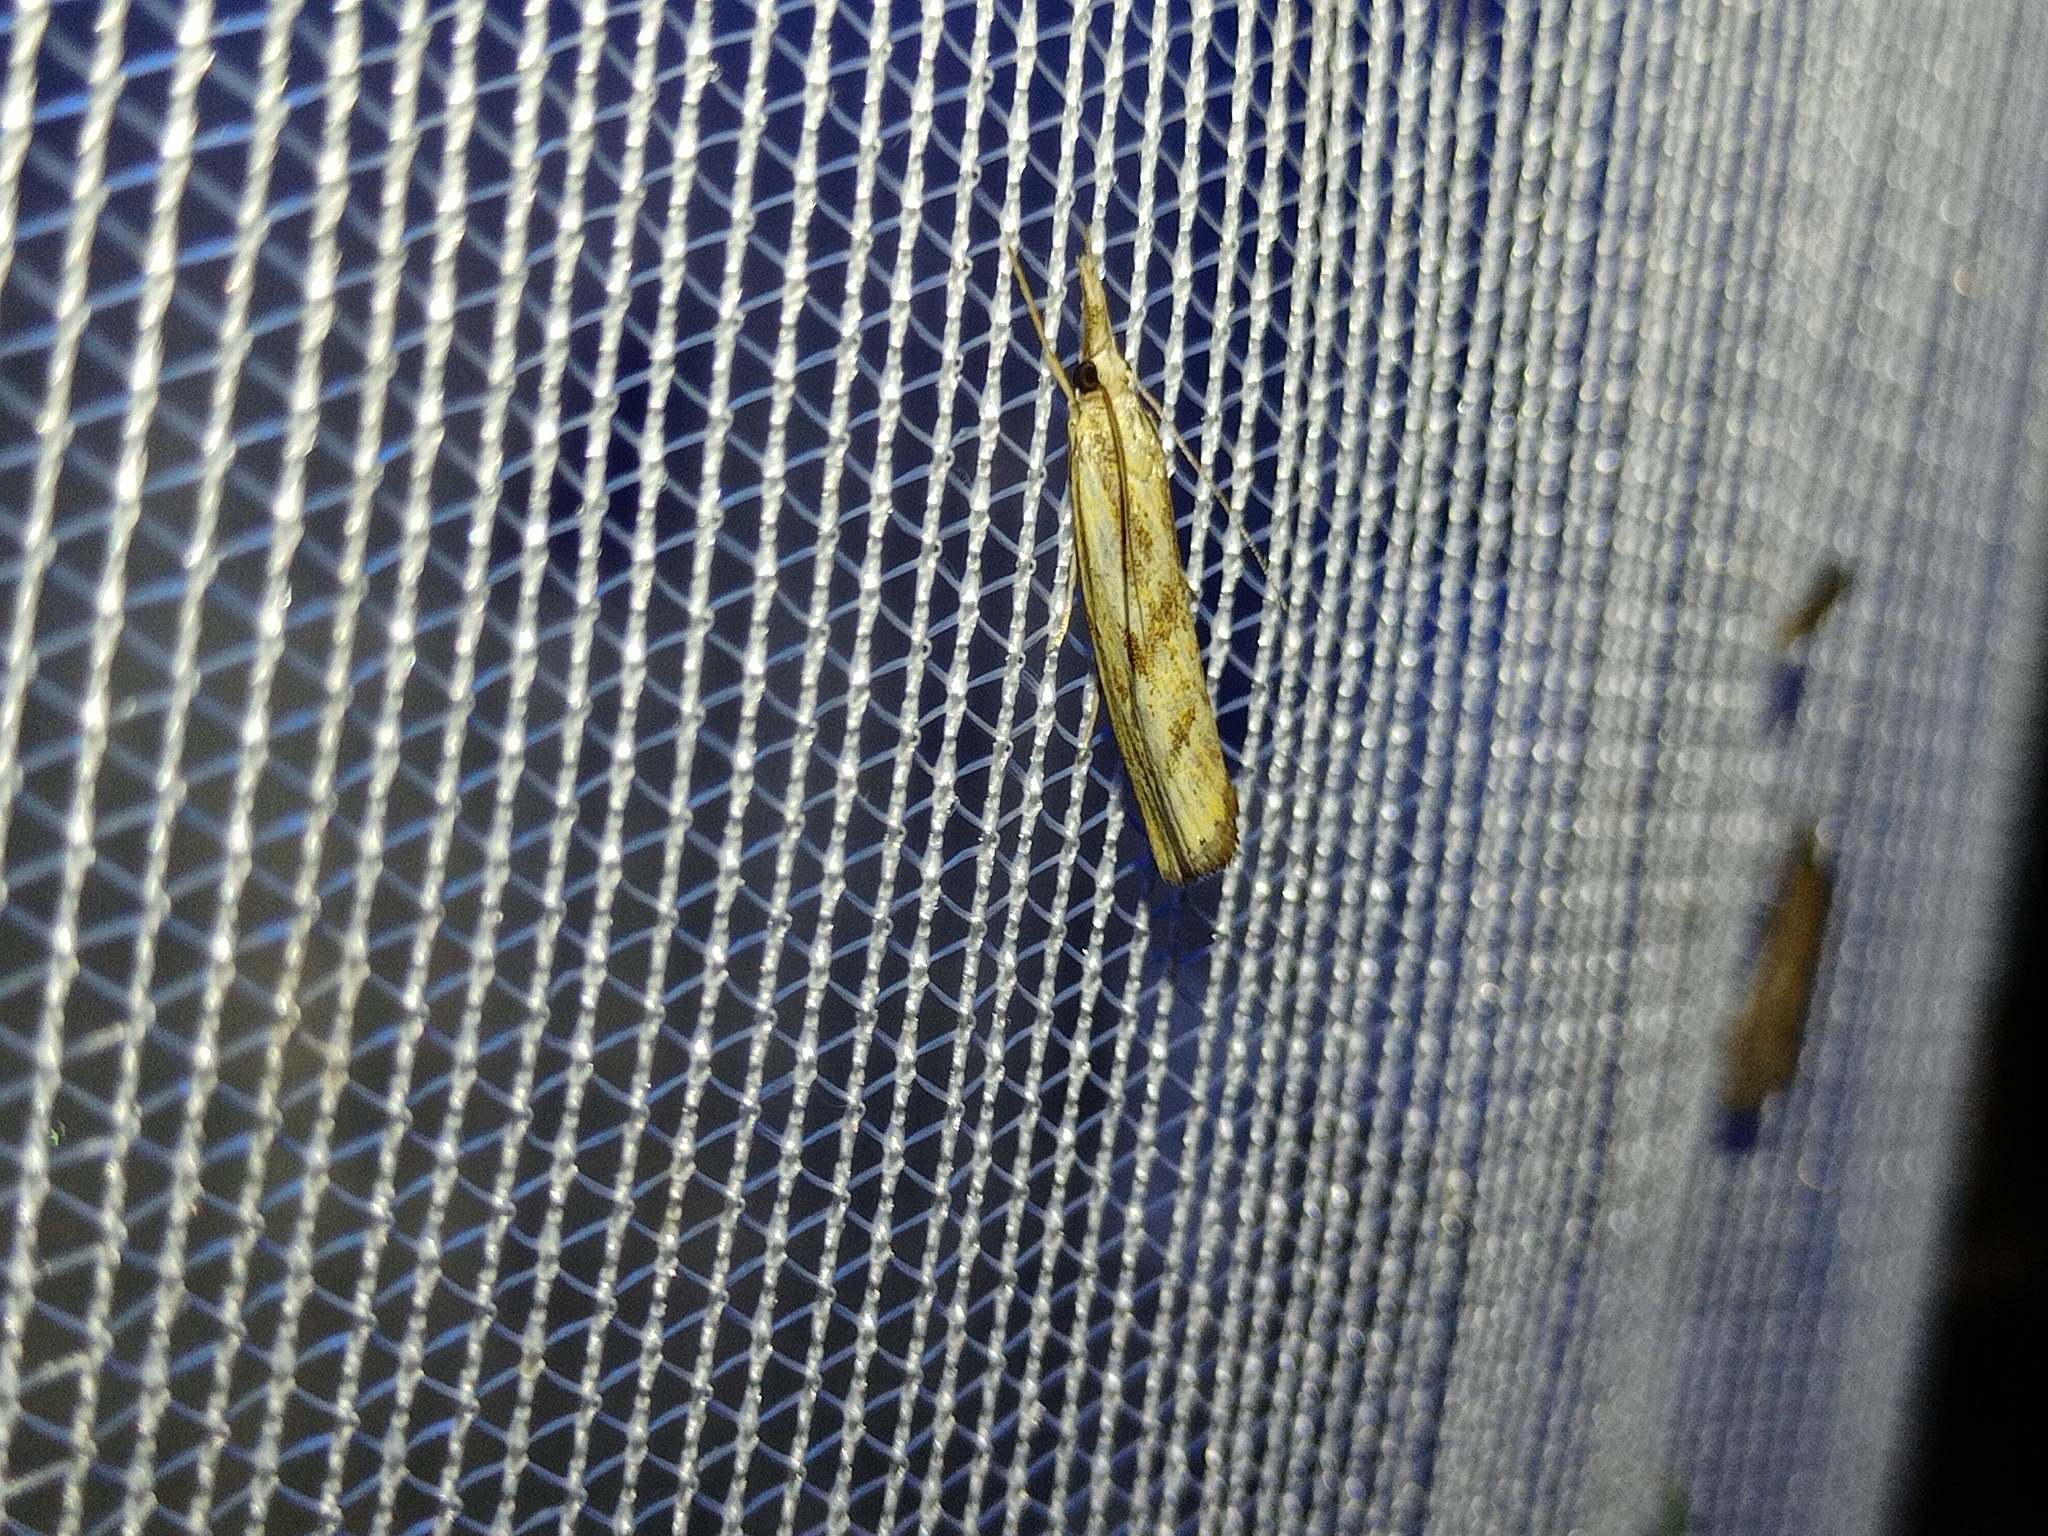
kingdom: Animalia
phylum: Arthropoda
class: Insecta
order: Lepidoptera
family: Crambidae
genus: Agriphila
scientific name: Agriphila inquinatella
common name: Barred grass-veneer
